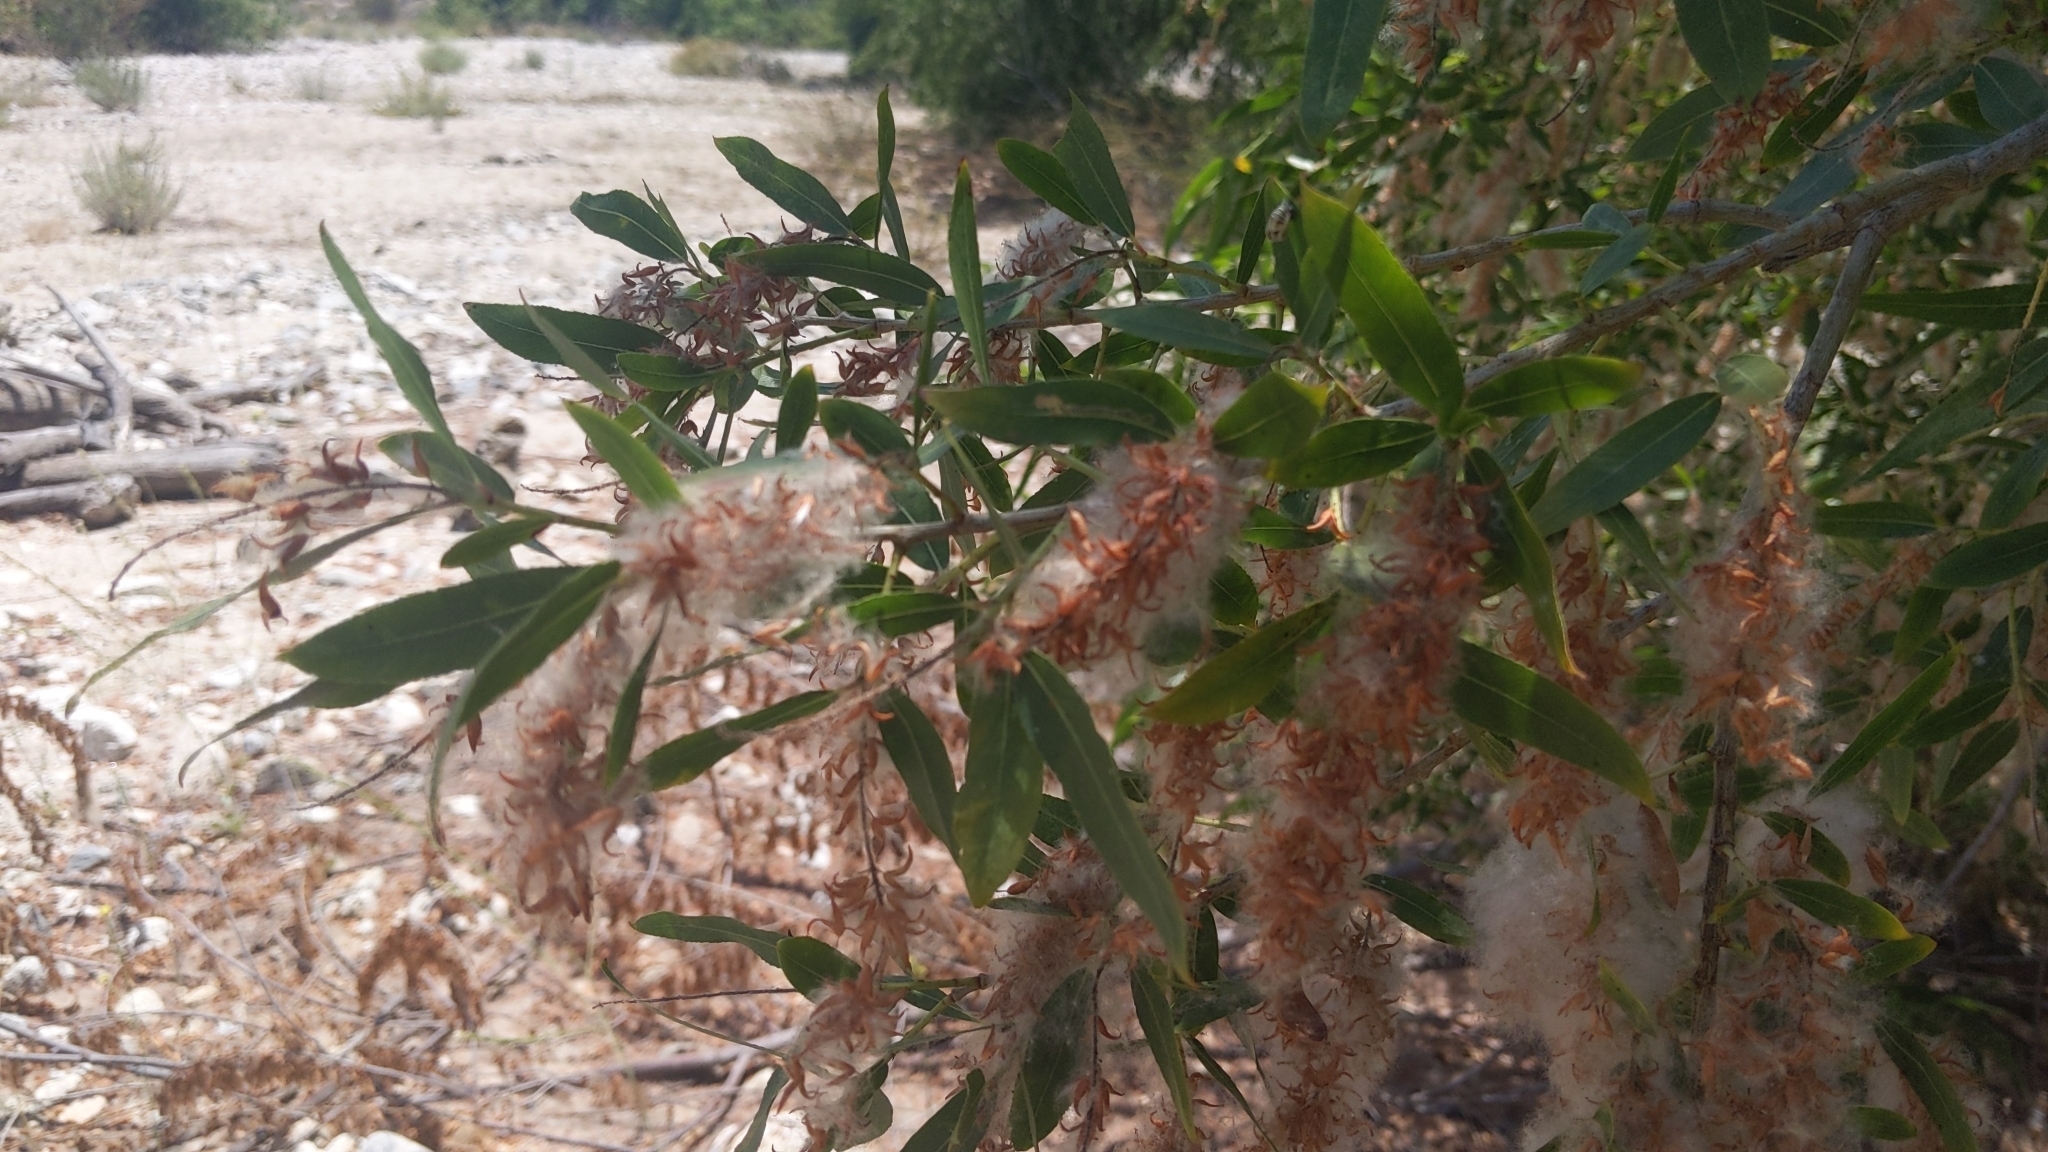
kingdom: Plantae
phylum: Tracheophyta
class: Magnoliopsida
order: Malpighiales
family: Salicaceae
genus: Salix
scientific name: Salix gooddingii
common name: Goodding's willow
